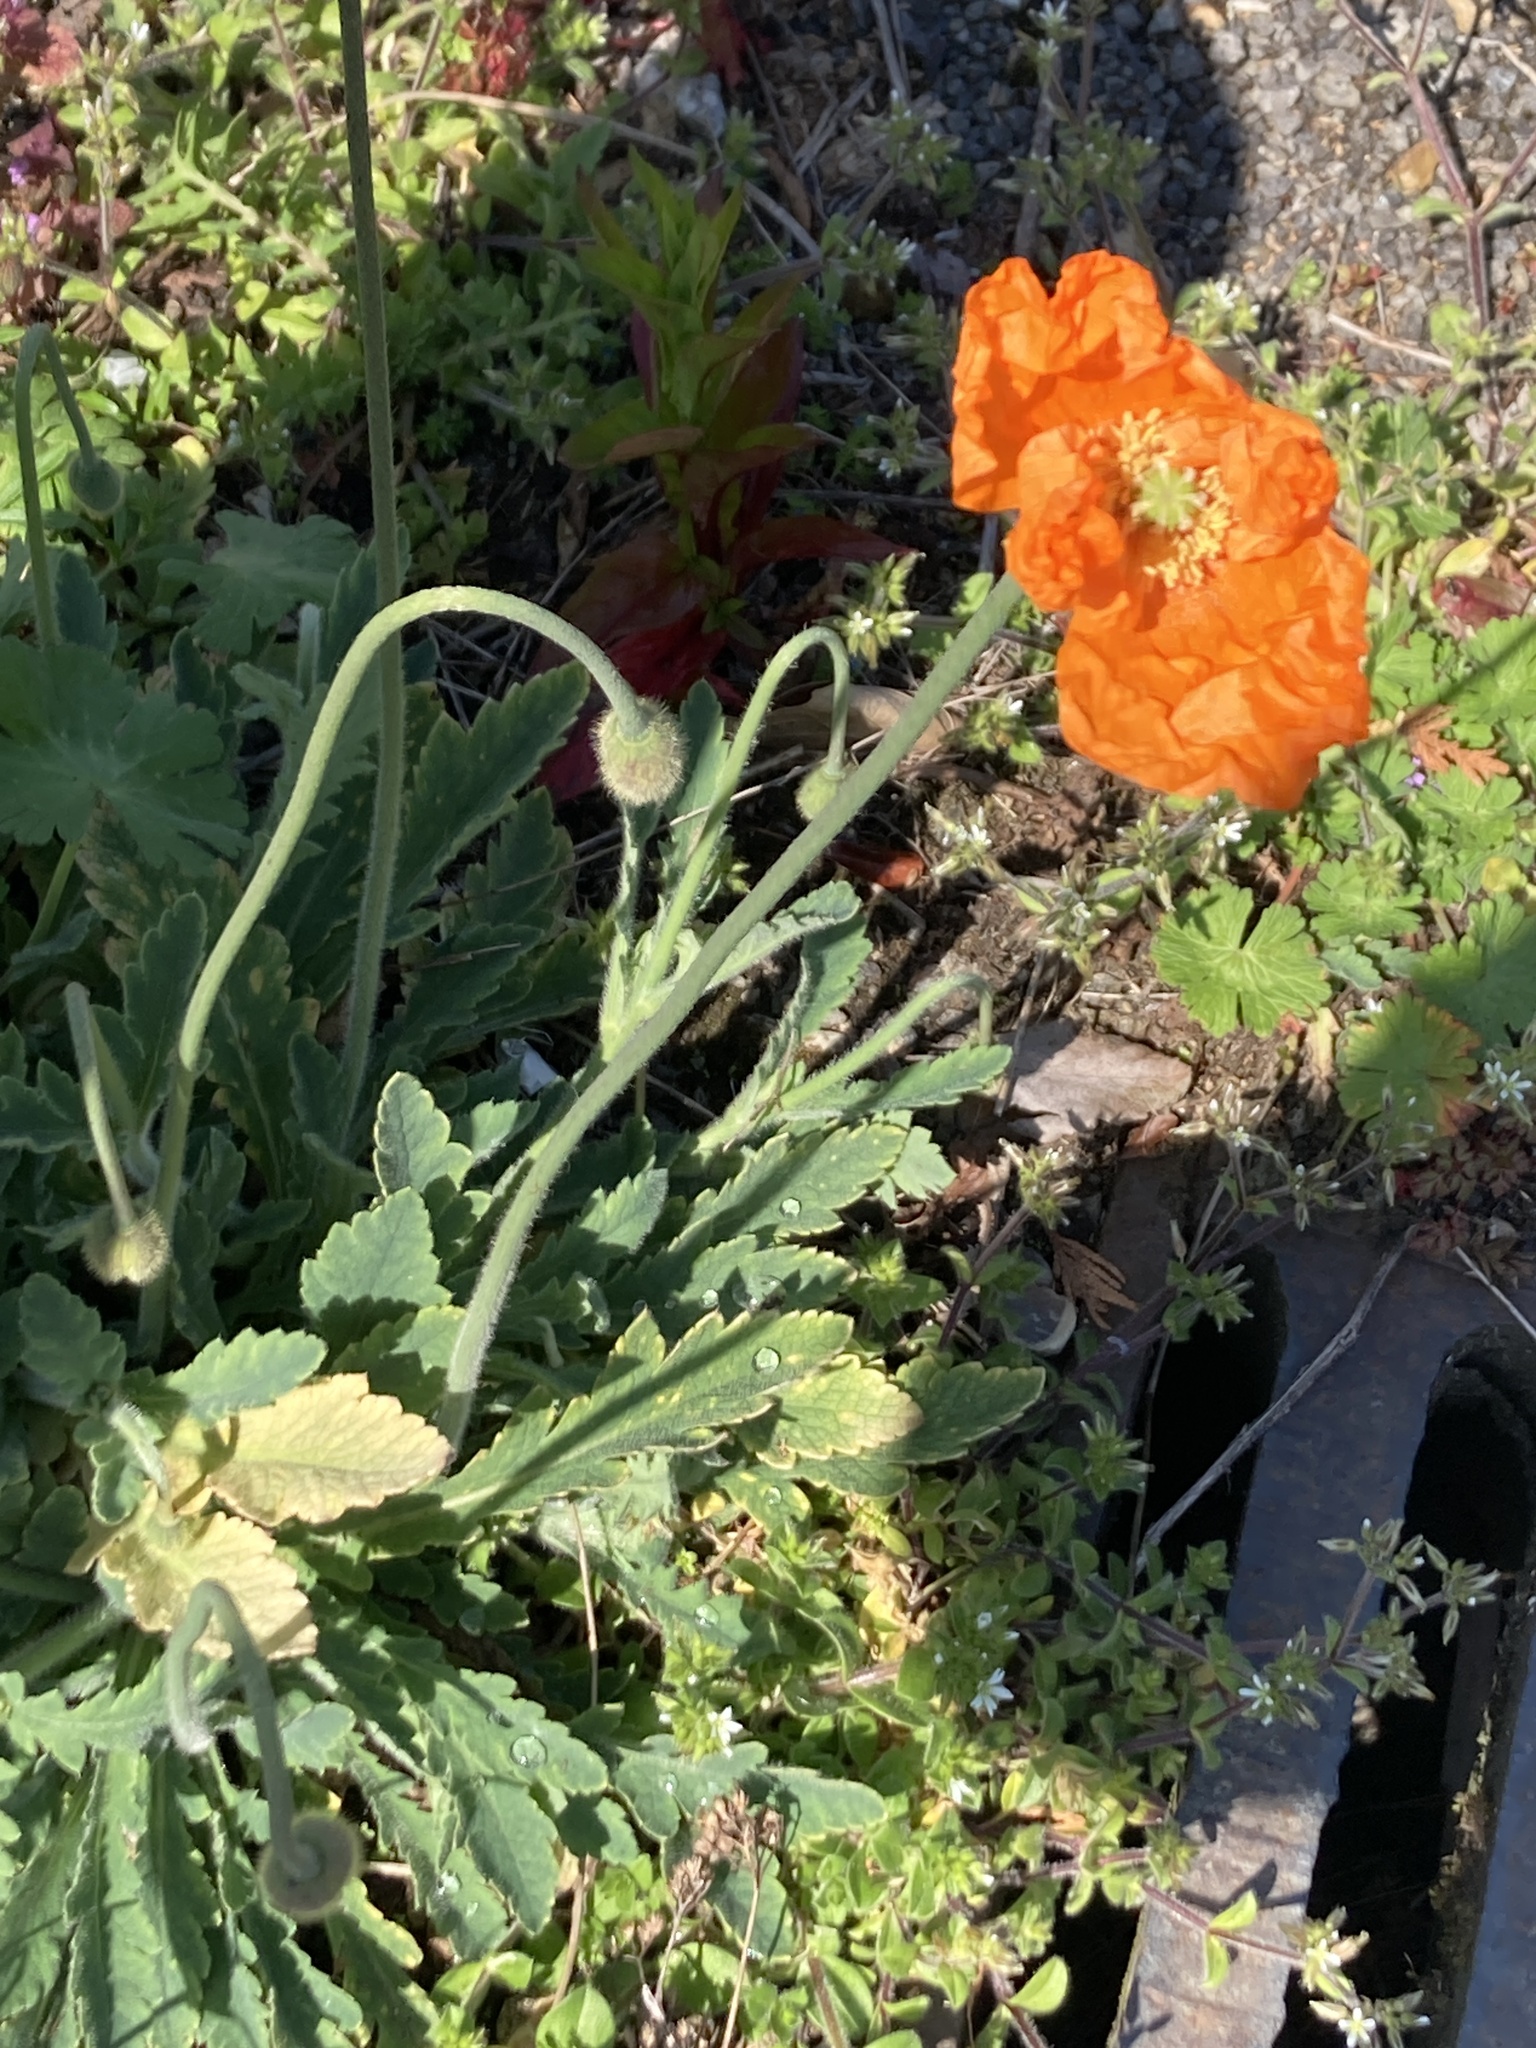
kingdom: Plantae
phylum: Tracheophyta
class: Magnoliopsida
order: Ranunculales
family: Papaveraceae
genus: Papaver
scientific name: Papaver atlanticum
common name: Atlas poppy
